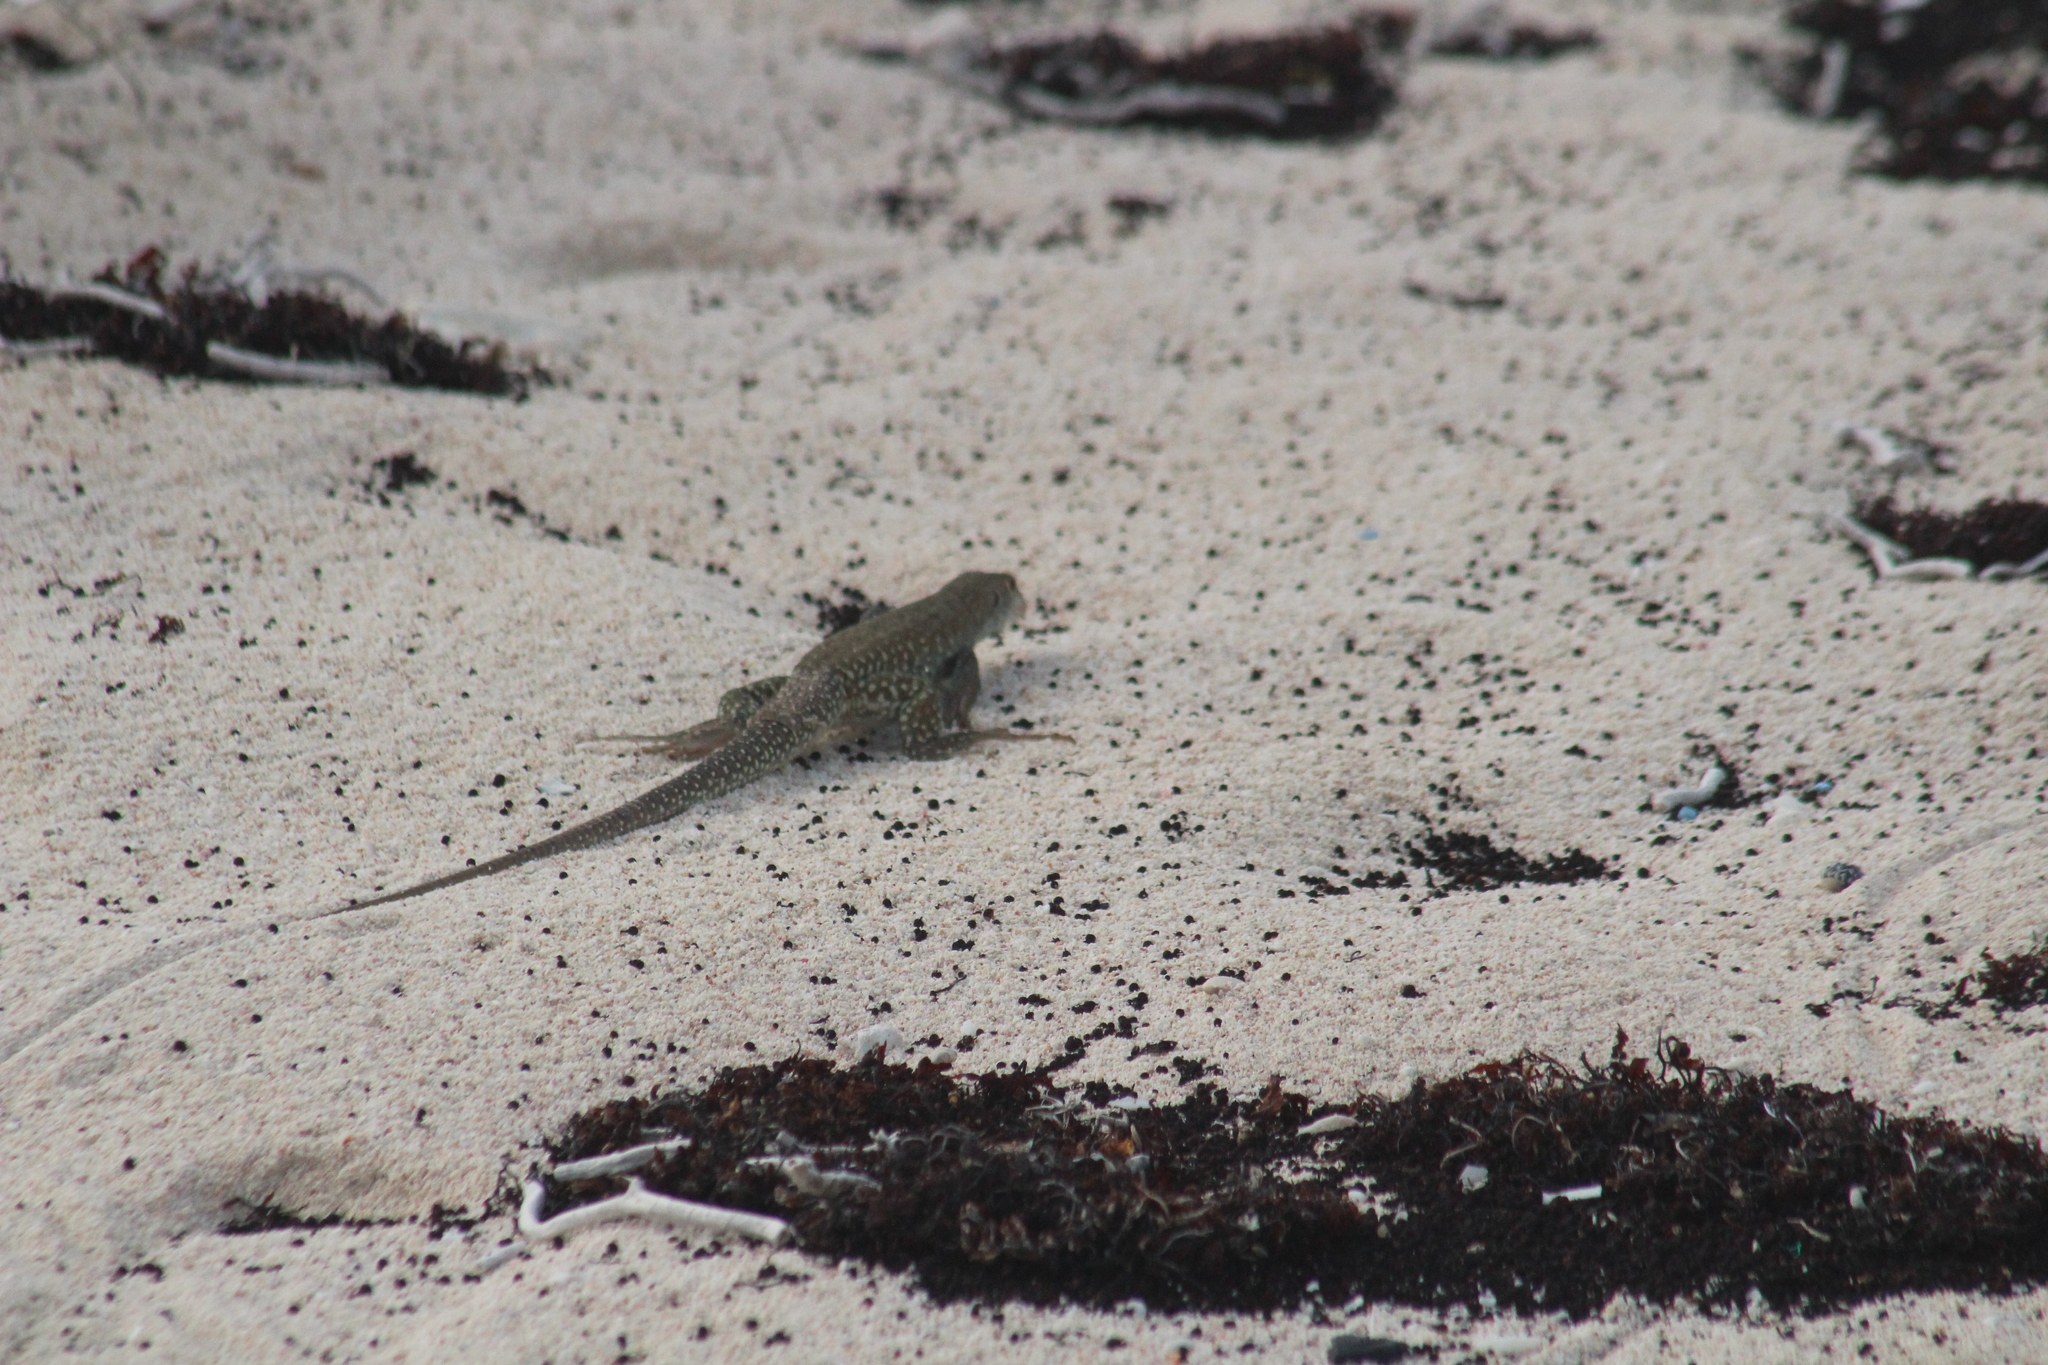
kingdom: Animalia
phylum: Chordata
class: Squamata
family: Teiidae
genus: Pholidoscelis
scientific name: Pholidoscelis plei
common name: Anguilla bank ameiva
